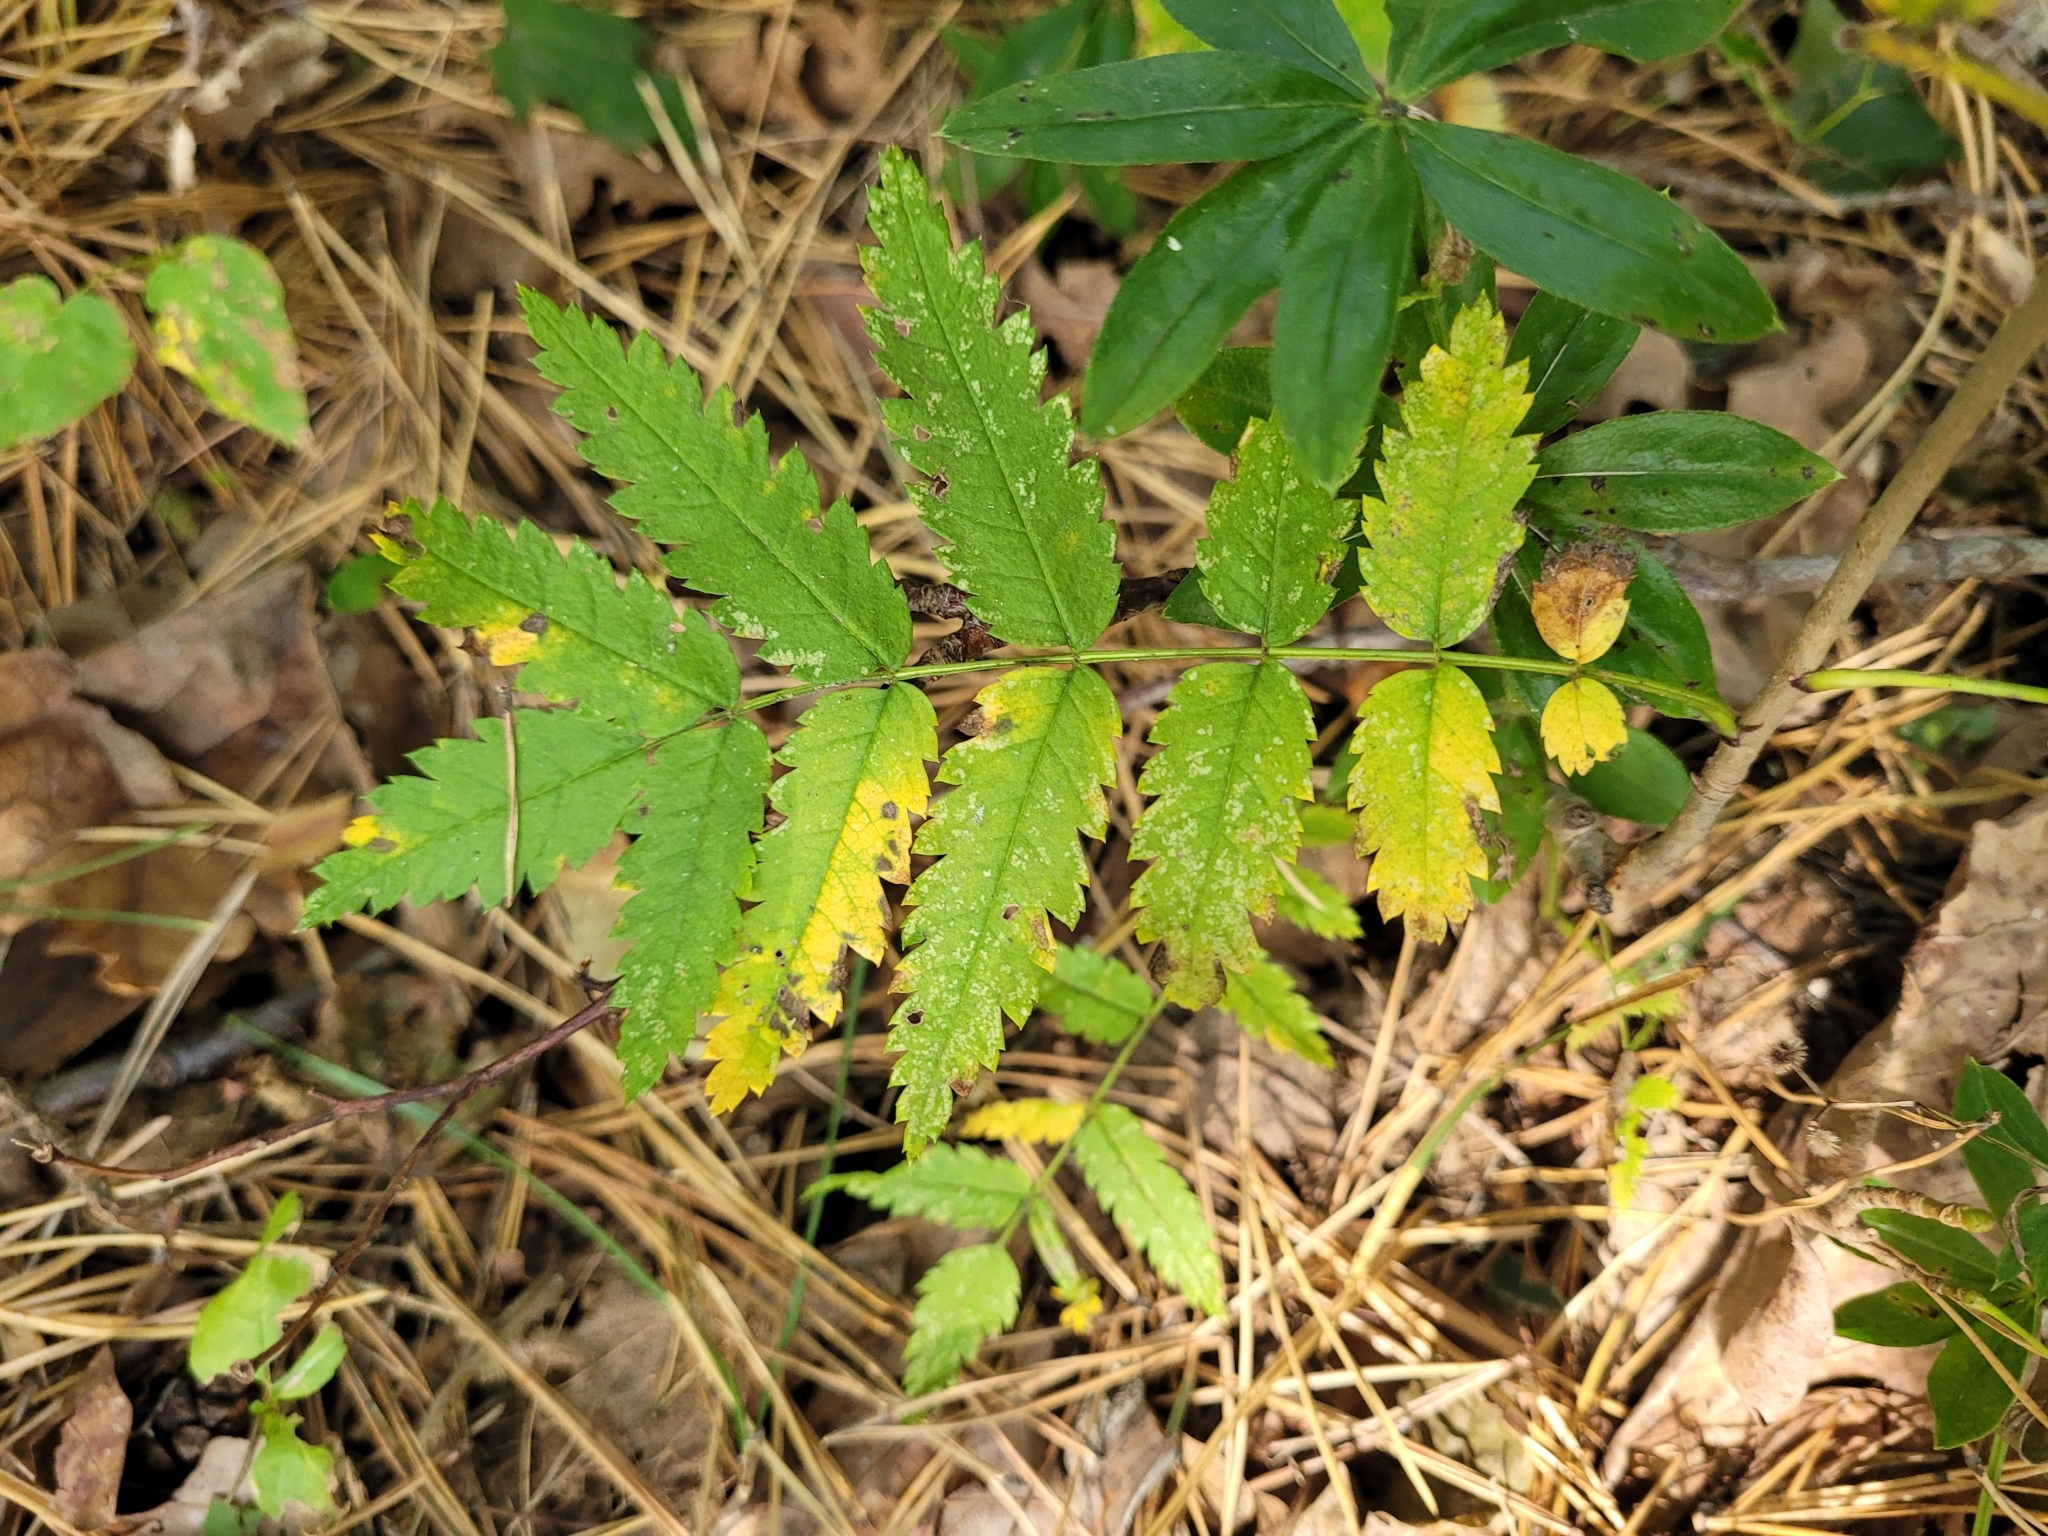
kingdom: Plantae
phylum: Tracheophyta
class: Magnoliopsida
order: Rosales
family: Rosaceae
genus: Sorbus
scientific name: Sorbus aucuparia
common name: Rowan
